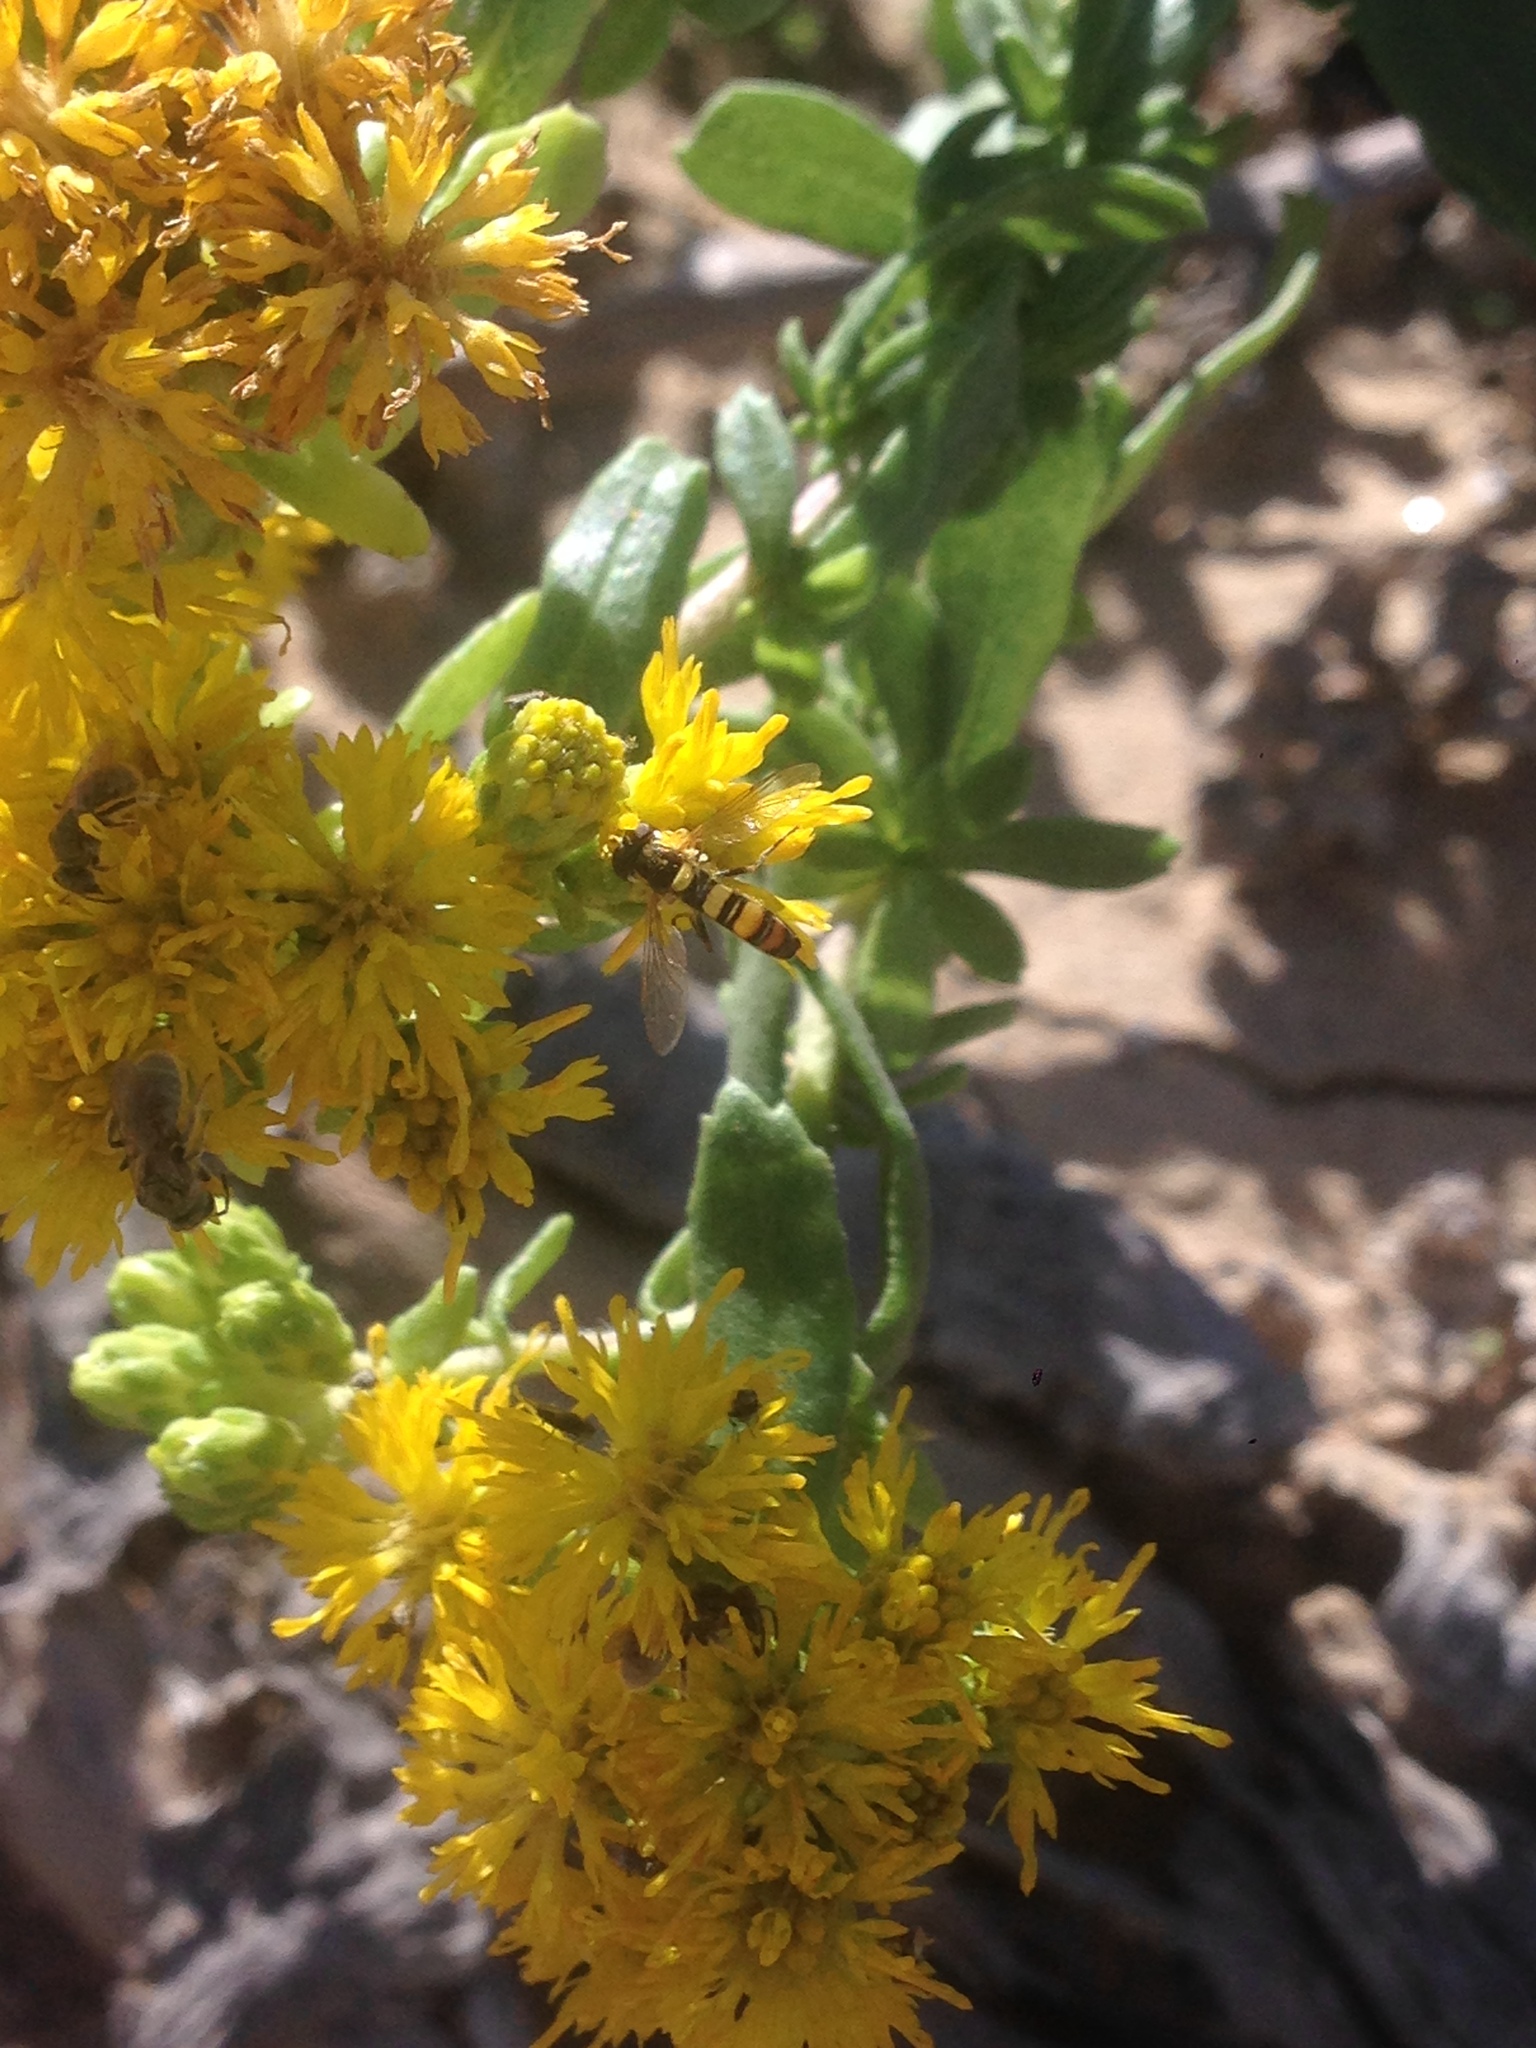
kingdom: Animalia
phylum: Arthropoda
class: Insecta
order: Diptera
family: Syrphidae
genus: Sphaerophoria
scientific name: Sphaerophoria contigua
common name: Tufted globetail
